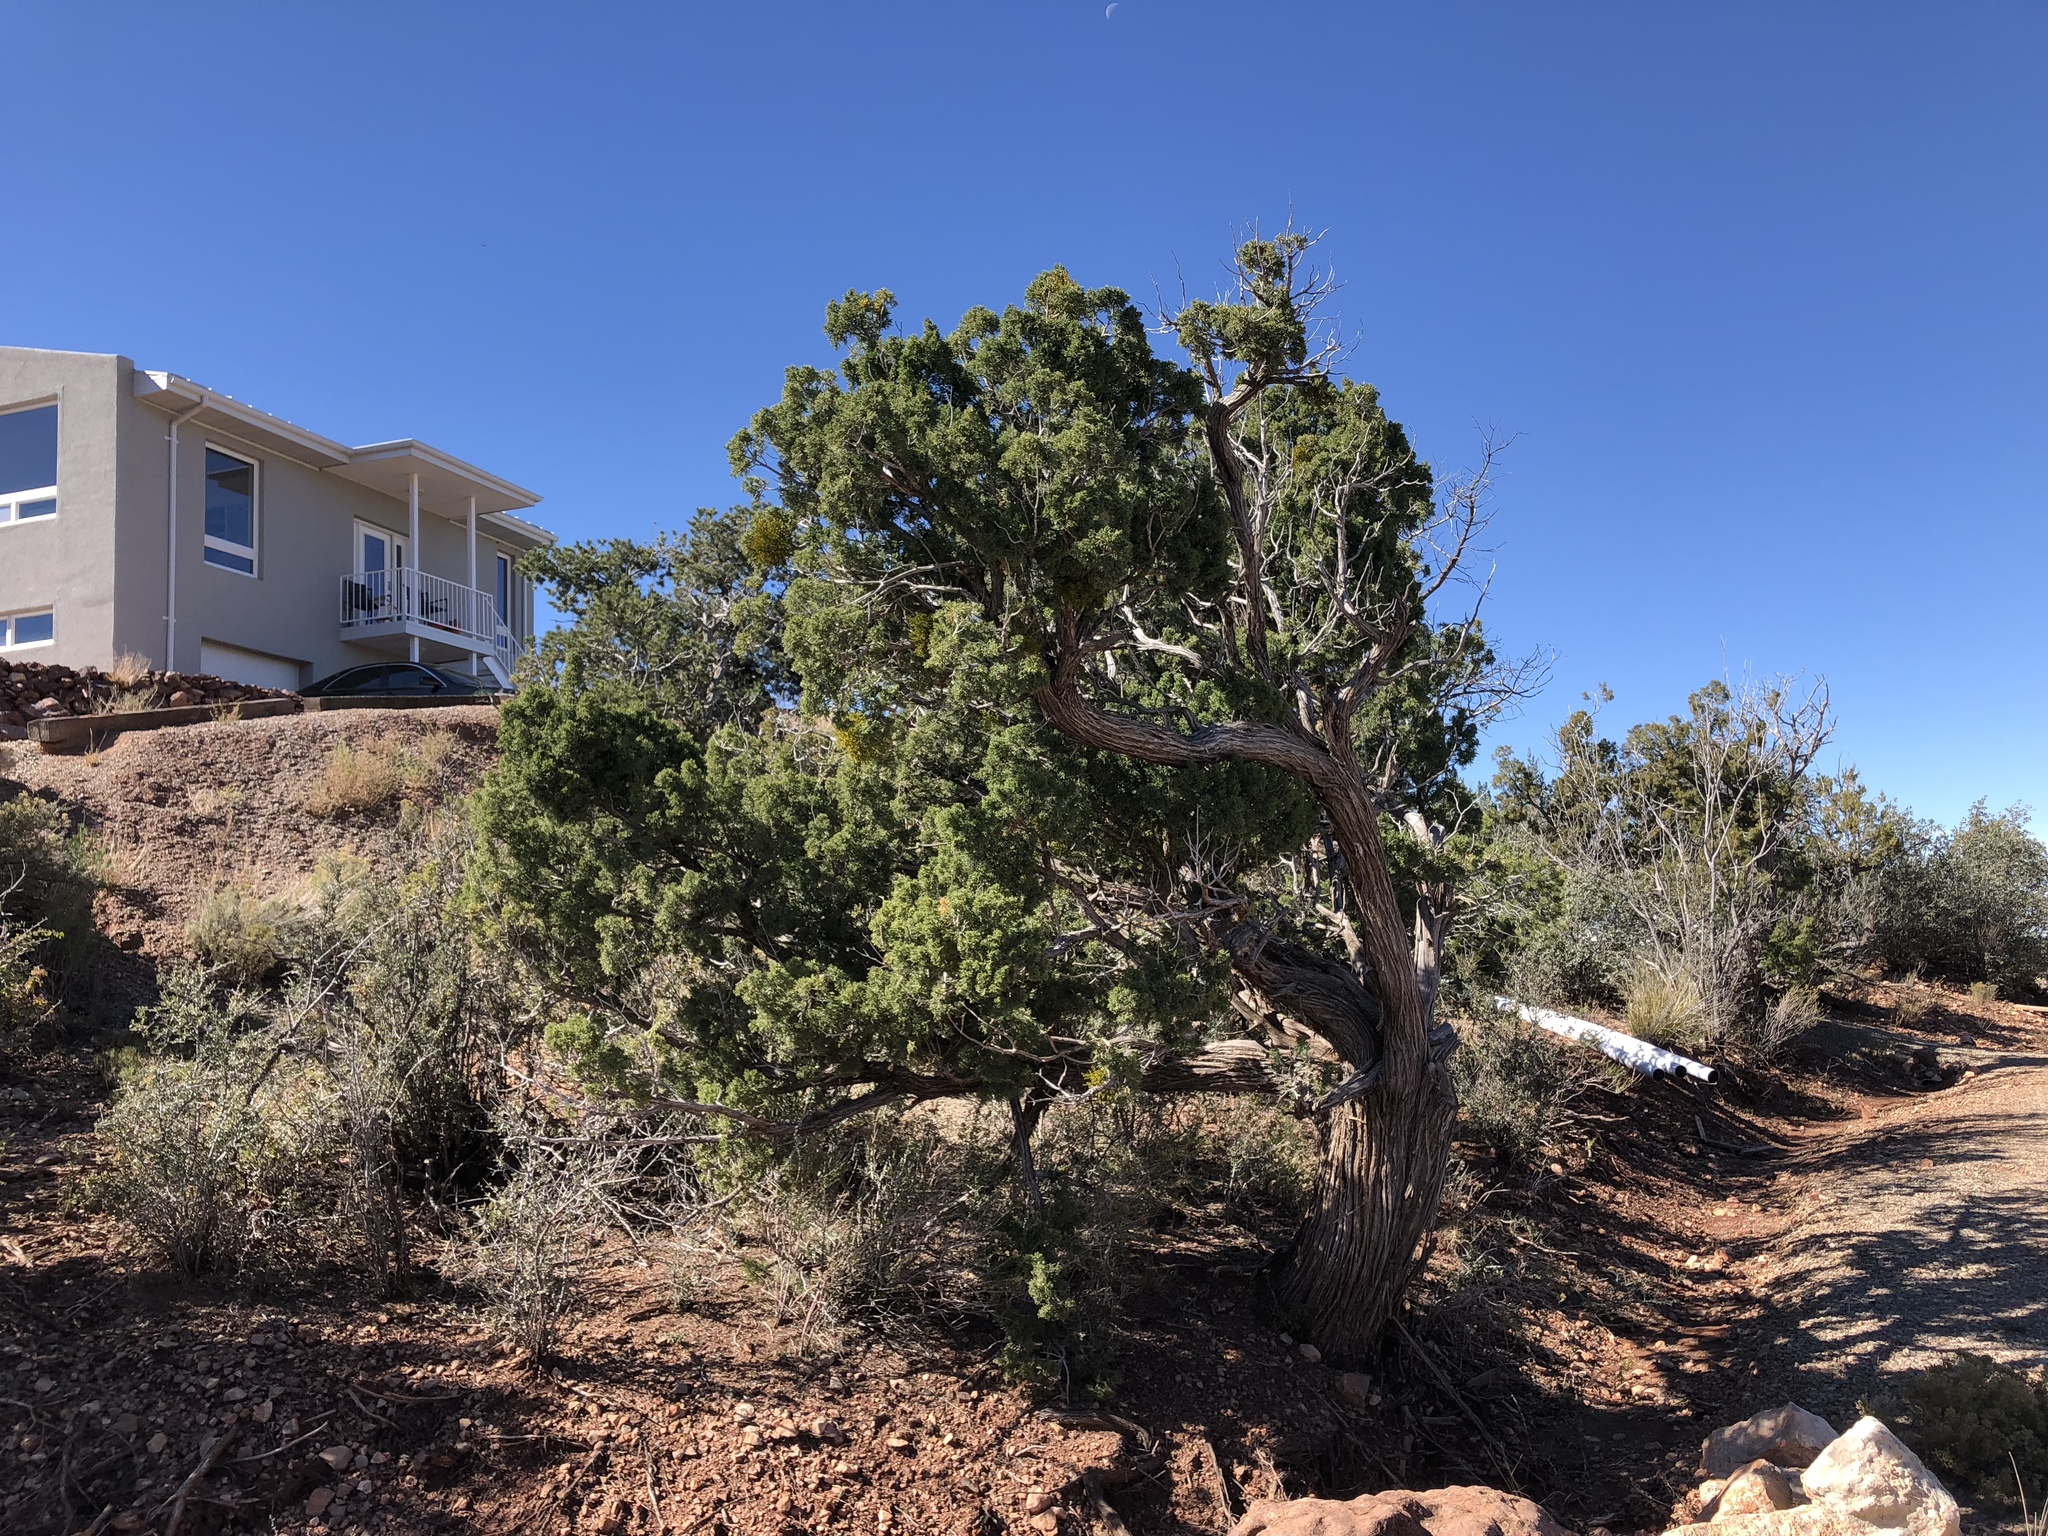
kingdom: Plantae
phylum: Tracheophyta
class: Pinopsida
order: Pinales
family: Cupressaceae
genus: Juniperus
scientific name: Juniperus monosperma
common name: One-seed juniper
